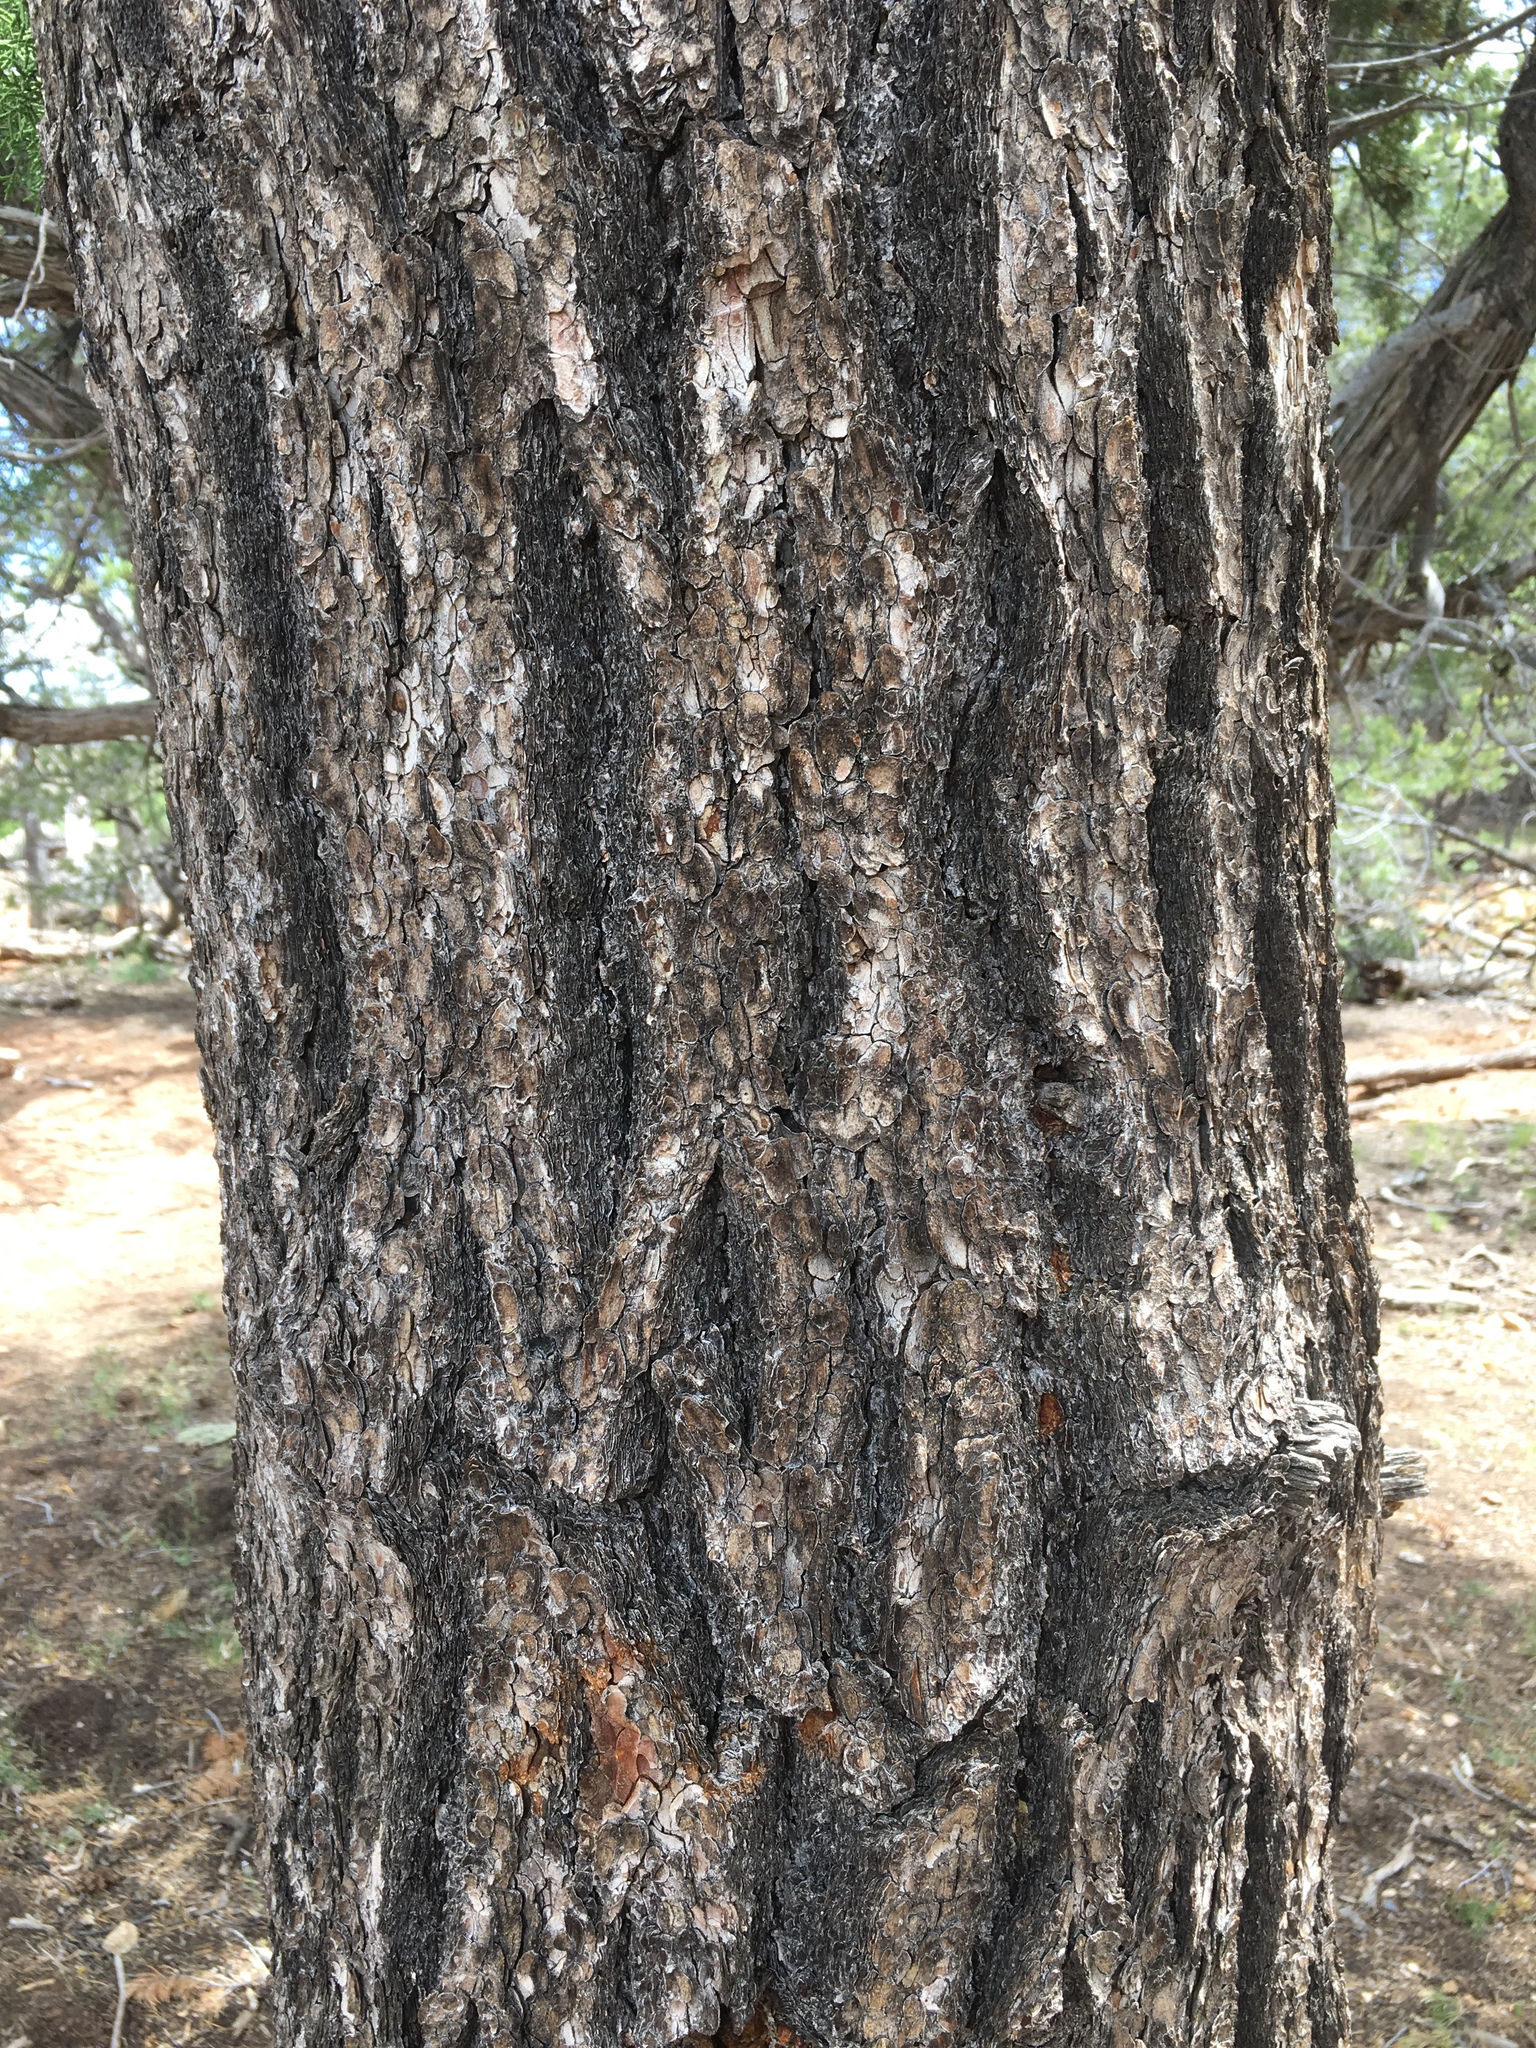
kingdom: Plantae
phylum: Tracheophyta
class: Pinopsida
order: Pinales
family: Pinaceae
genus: Pinus
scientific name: Pinus
